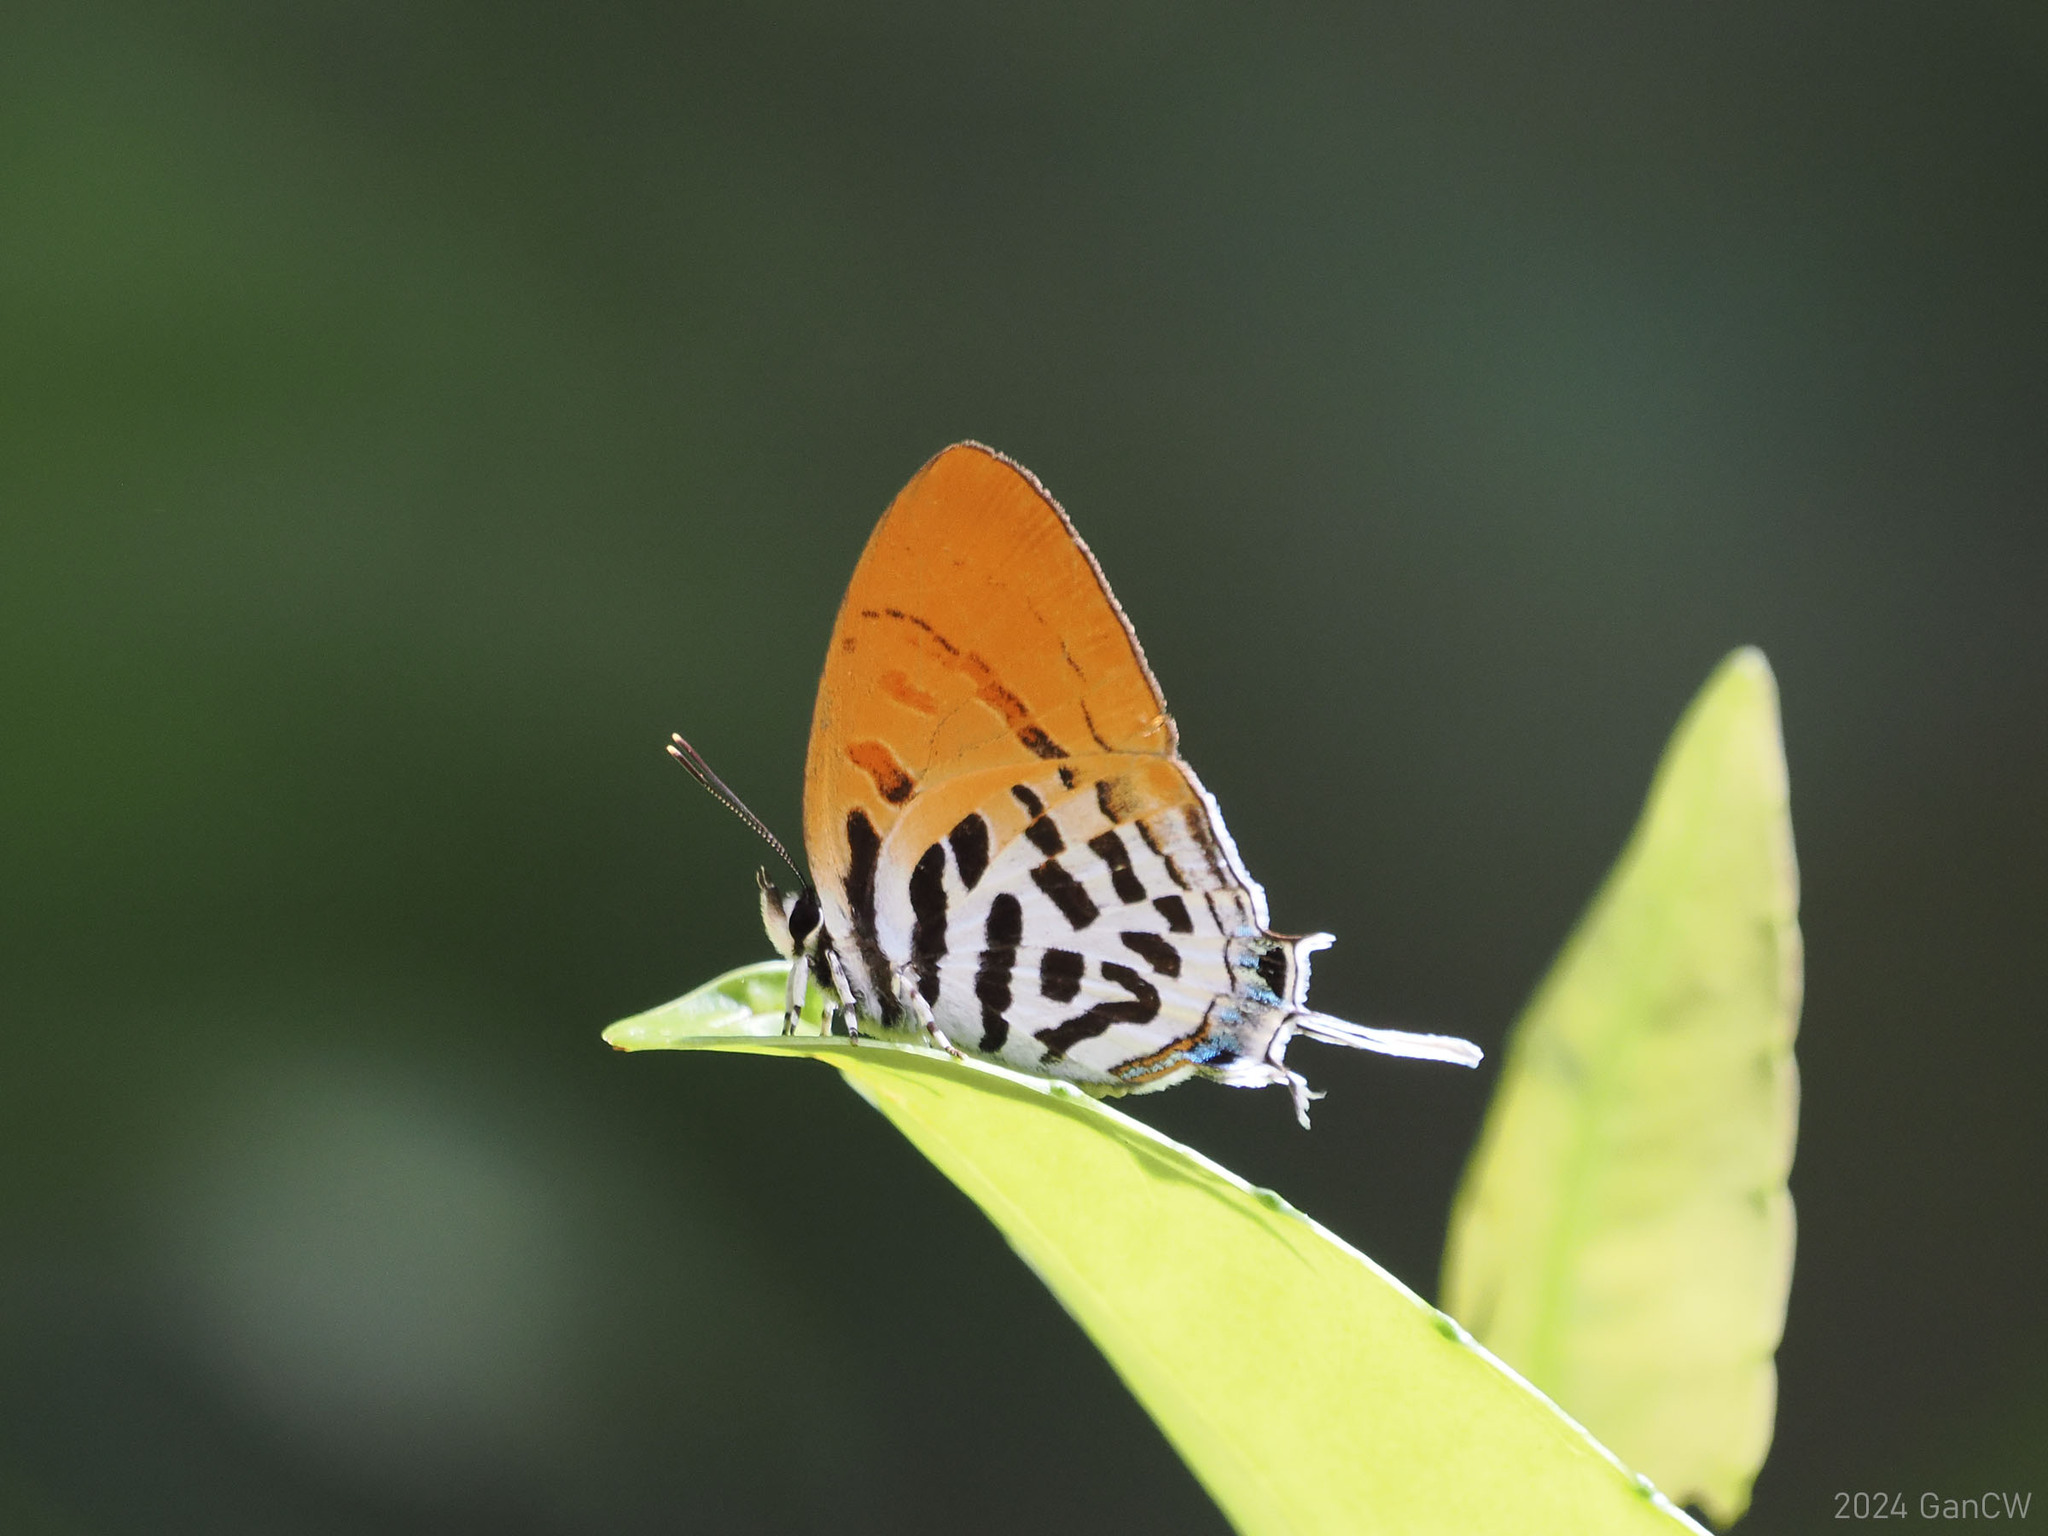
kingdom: Animalia
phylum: Arthropoda
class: Insecta
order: Lepidoptera
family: Lycaenidae
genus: Drupadia
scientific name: Drupadia ravindra
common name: Common posy
